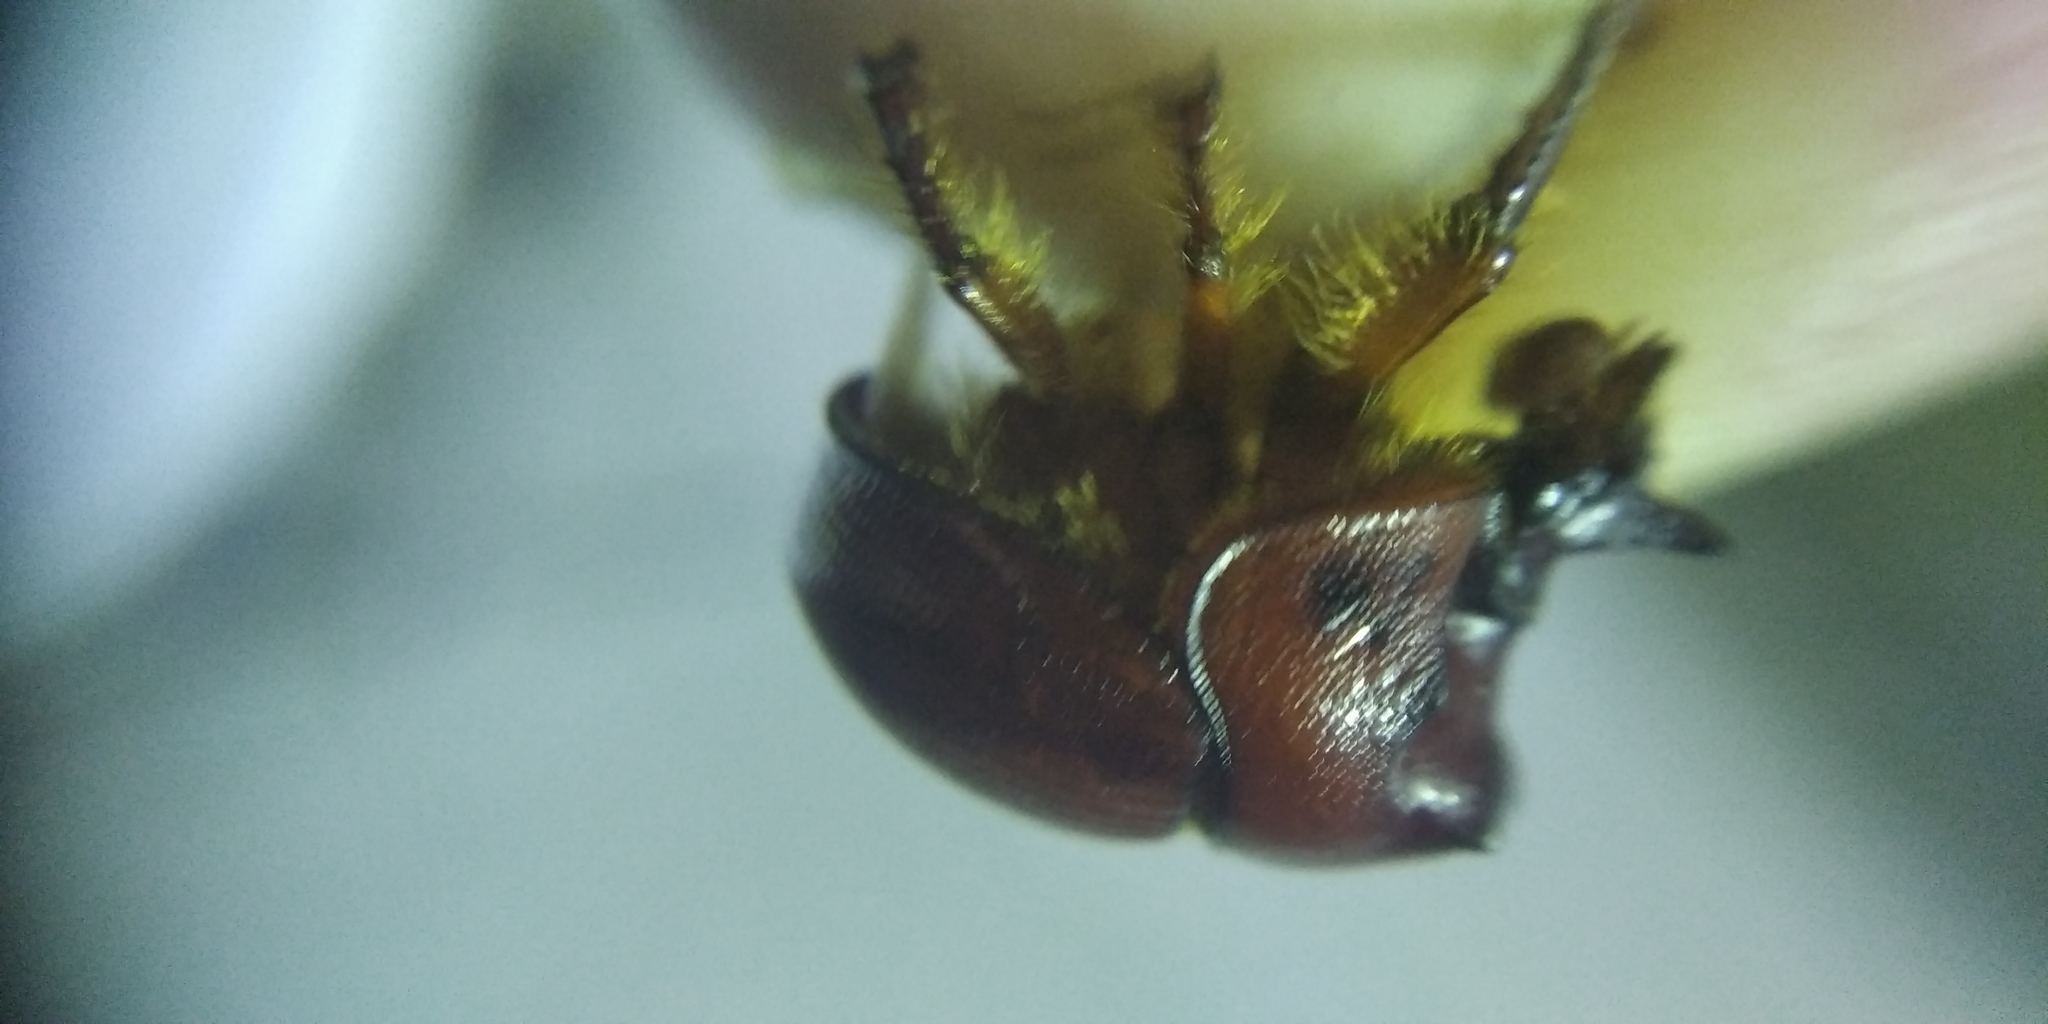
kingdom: Animalia
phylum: Arthropoda
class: Insecta
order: Coleoptera
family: Geotrupidae
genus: Bolbelasmus
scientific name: Bolbelasmus unicornis
